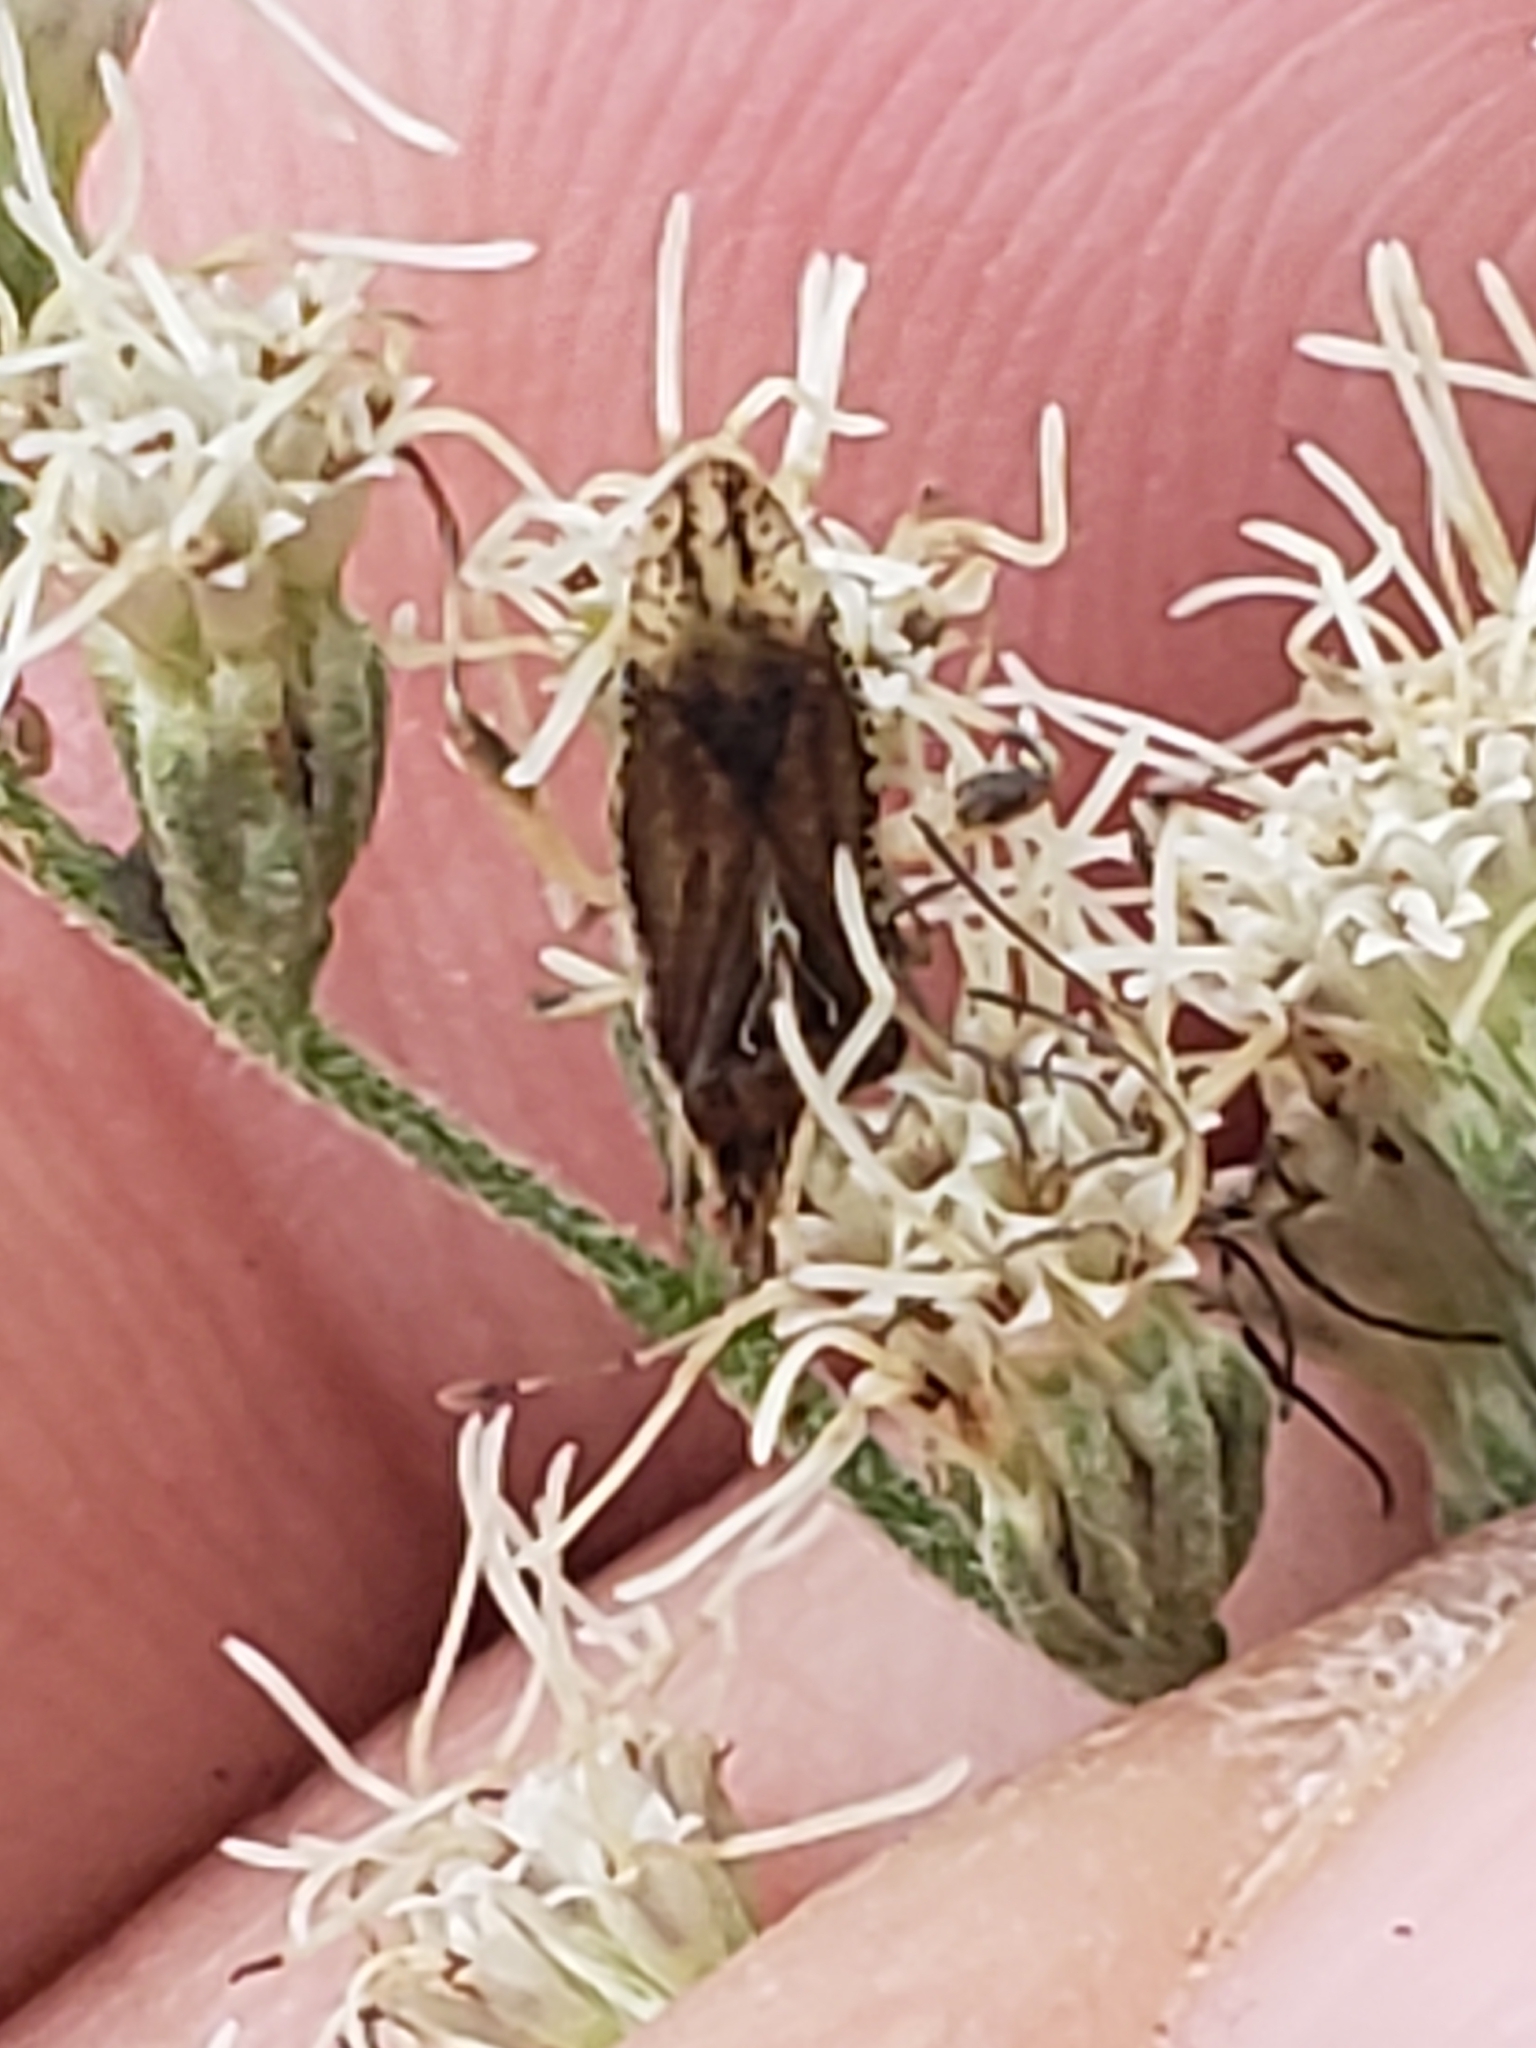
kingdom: Animalia
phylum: Arthropoda
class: Insecta
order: Hemiptera
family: Rhopalidae
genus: Harmostes
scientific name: Harmostes fraterculus
